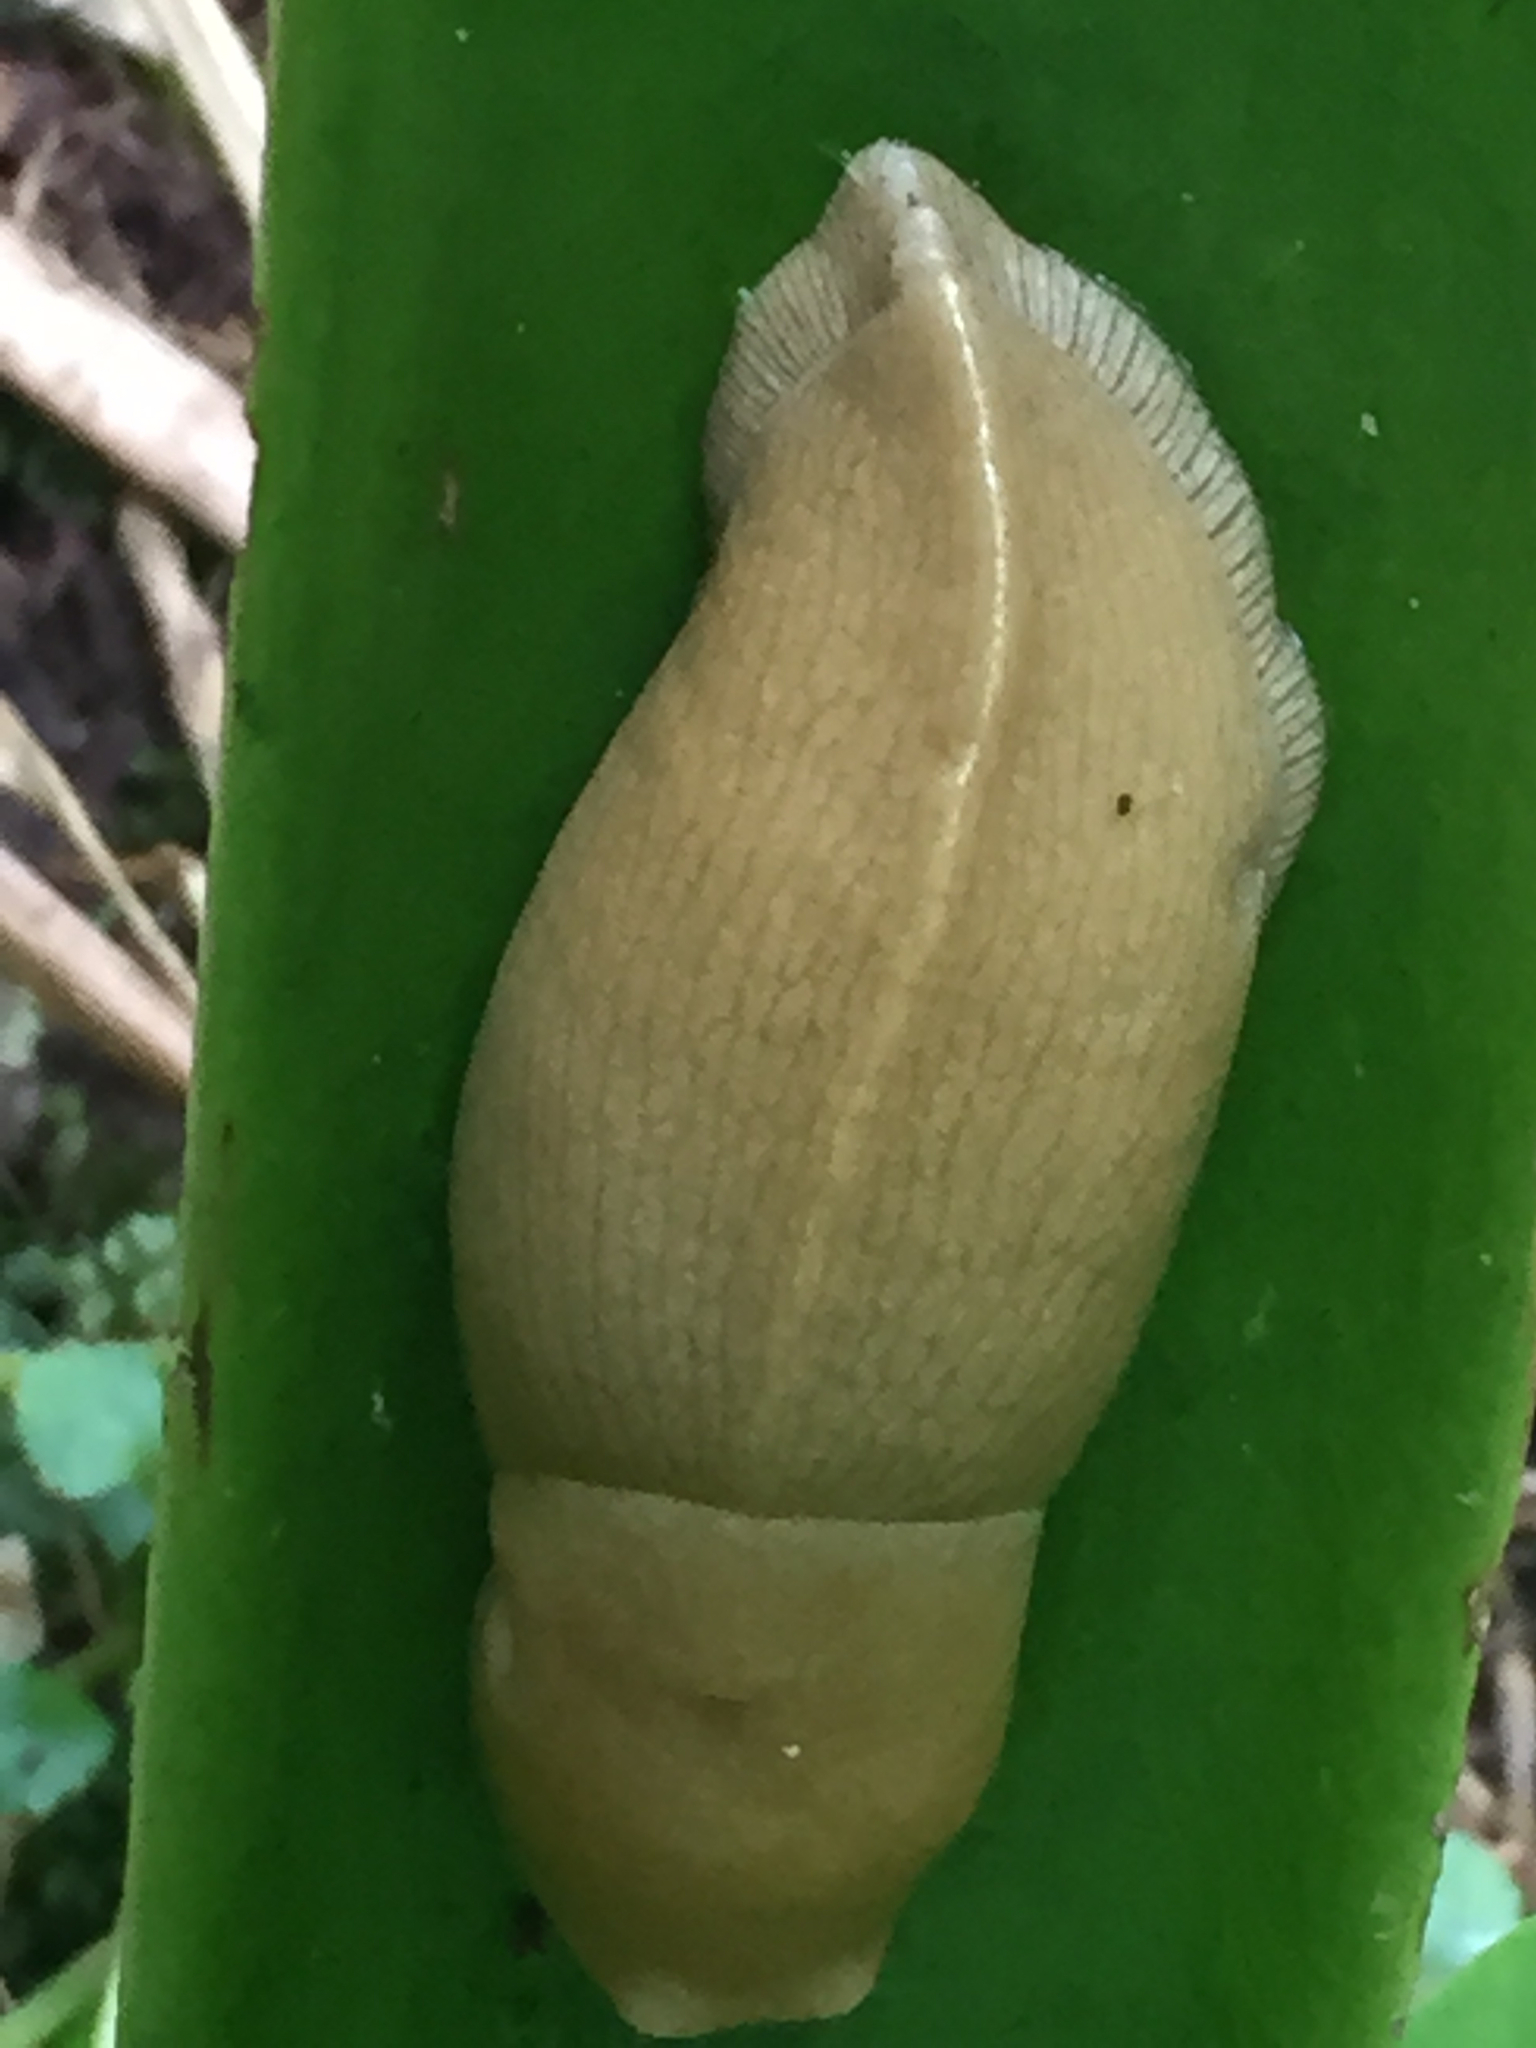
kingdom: Animalia
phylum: Mollusca
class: Gastropoda
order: Stylommatophora
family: Ariolimacidae
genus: Ariolimax
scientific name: Ariolimax columbianus
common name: Pacific banana slug
